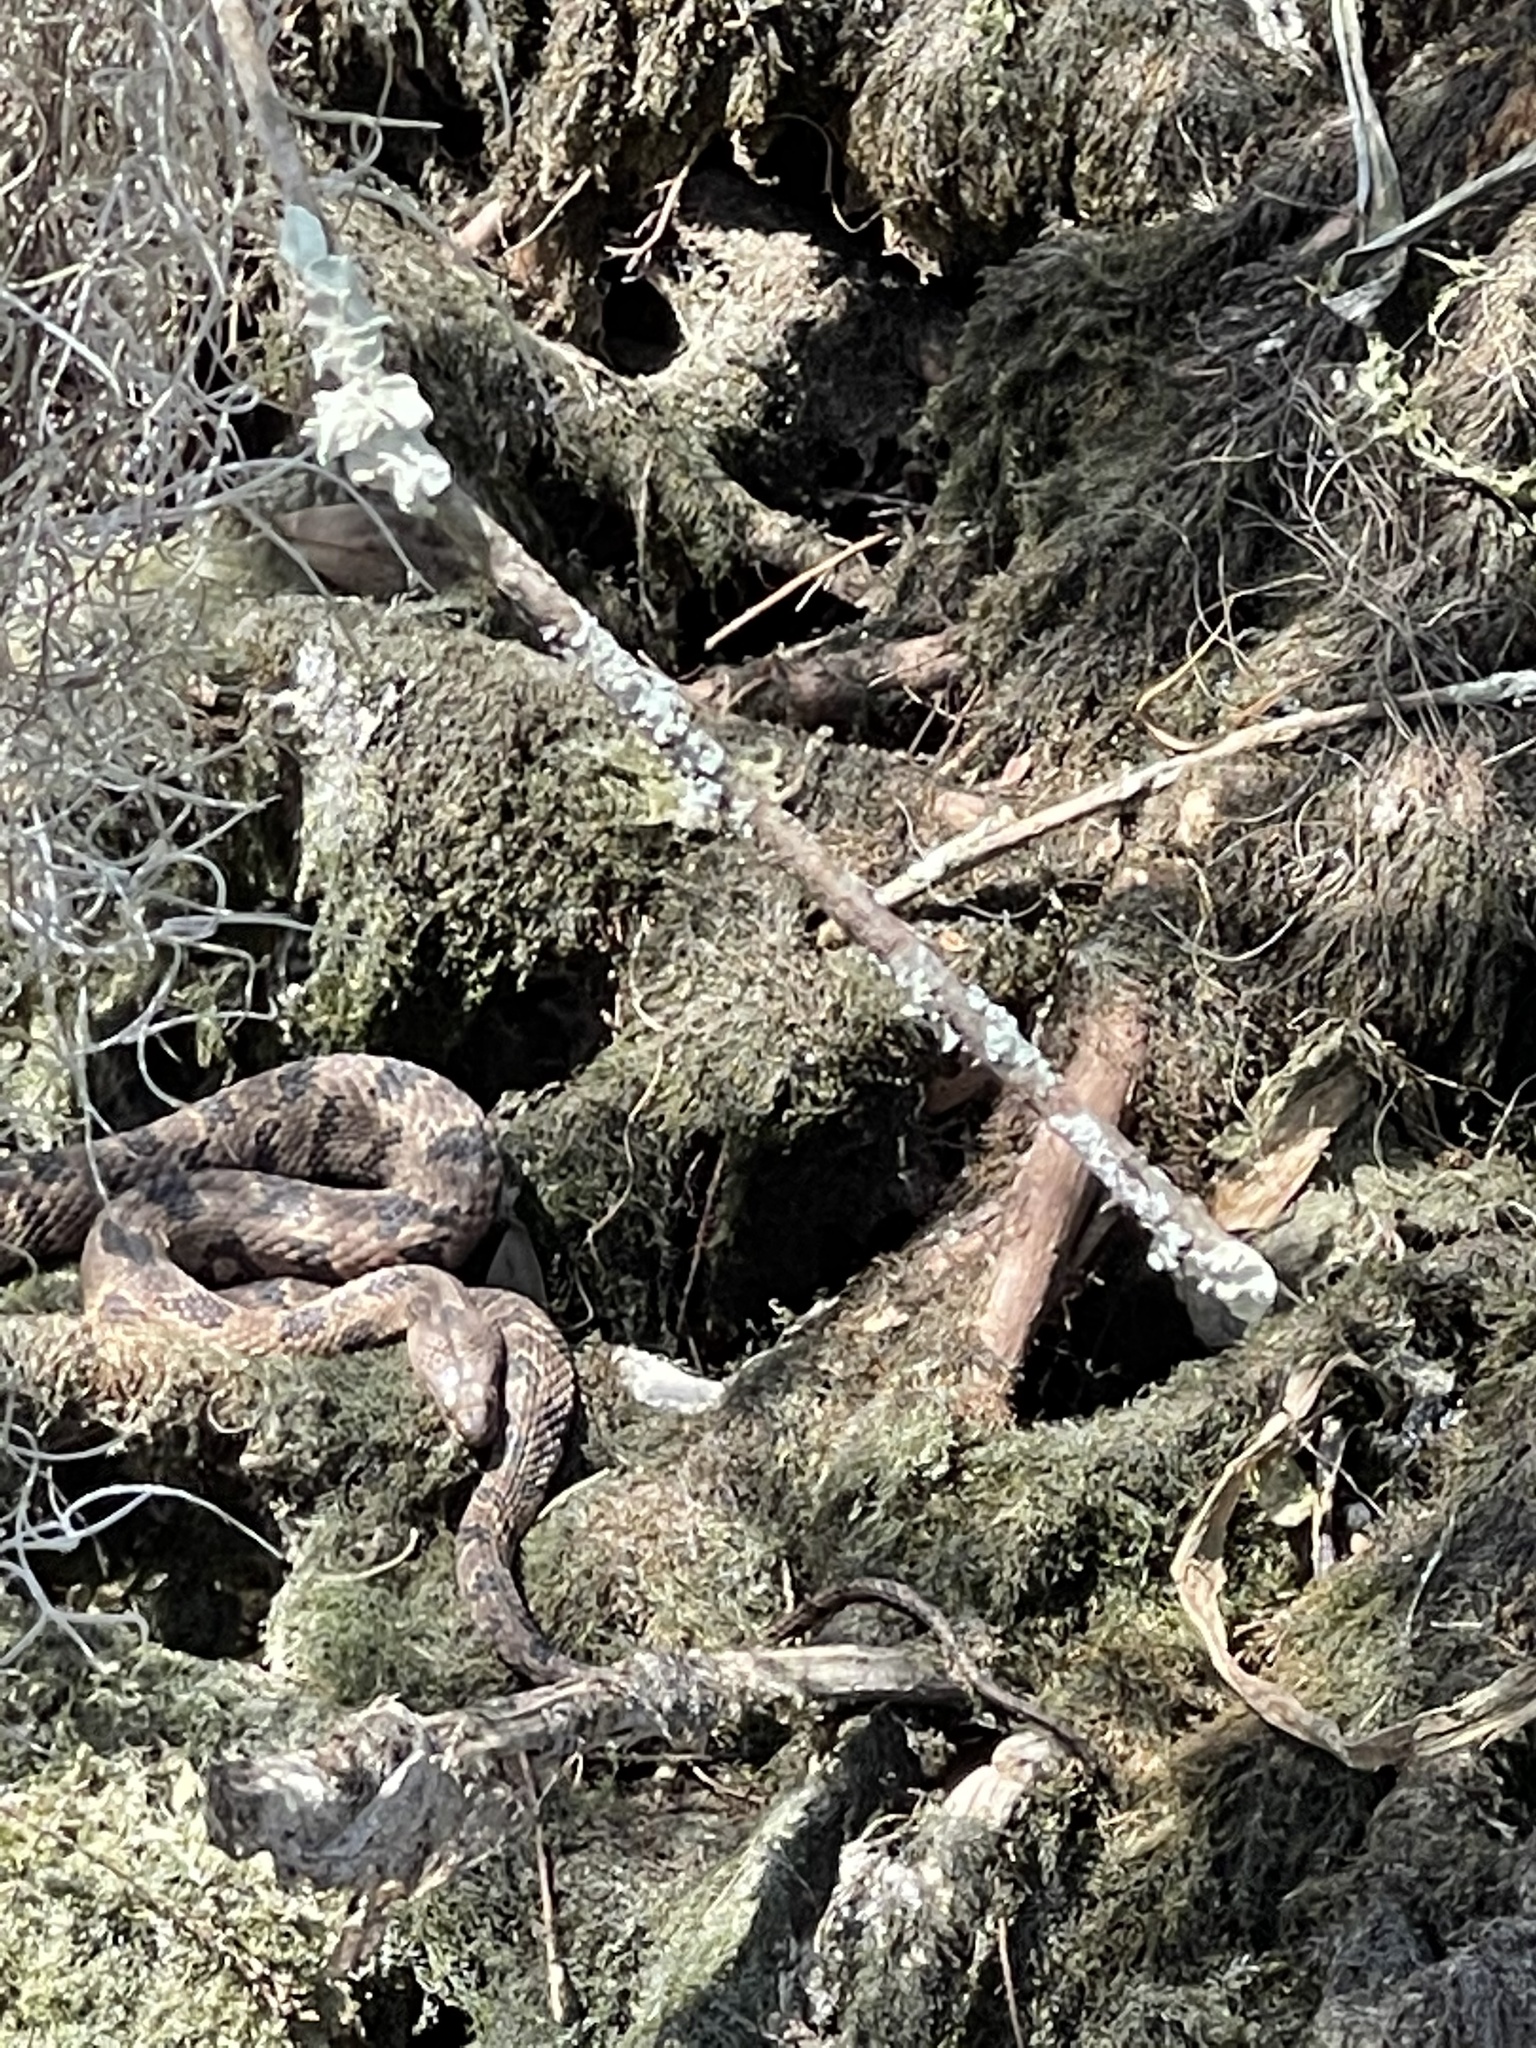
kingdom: Animalia
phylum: Chordata
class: Squamata
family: Colubridae
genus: Nerodia
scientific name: Nerodia taxispilota
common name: Brown water snake
